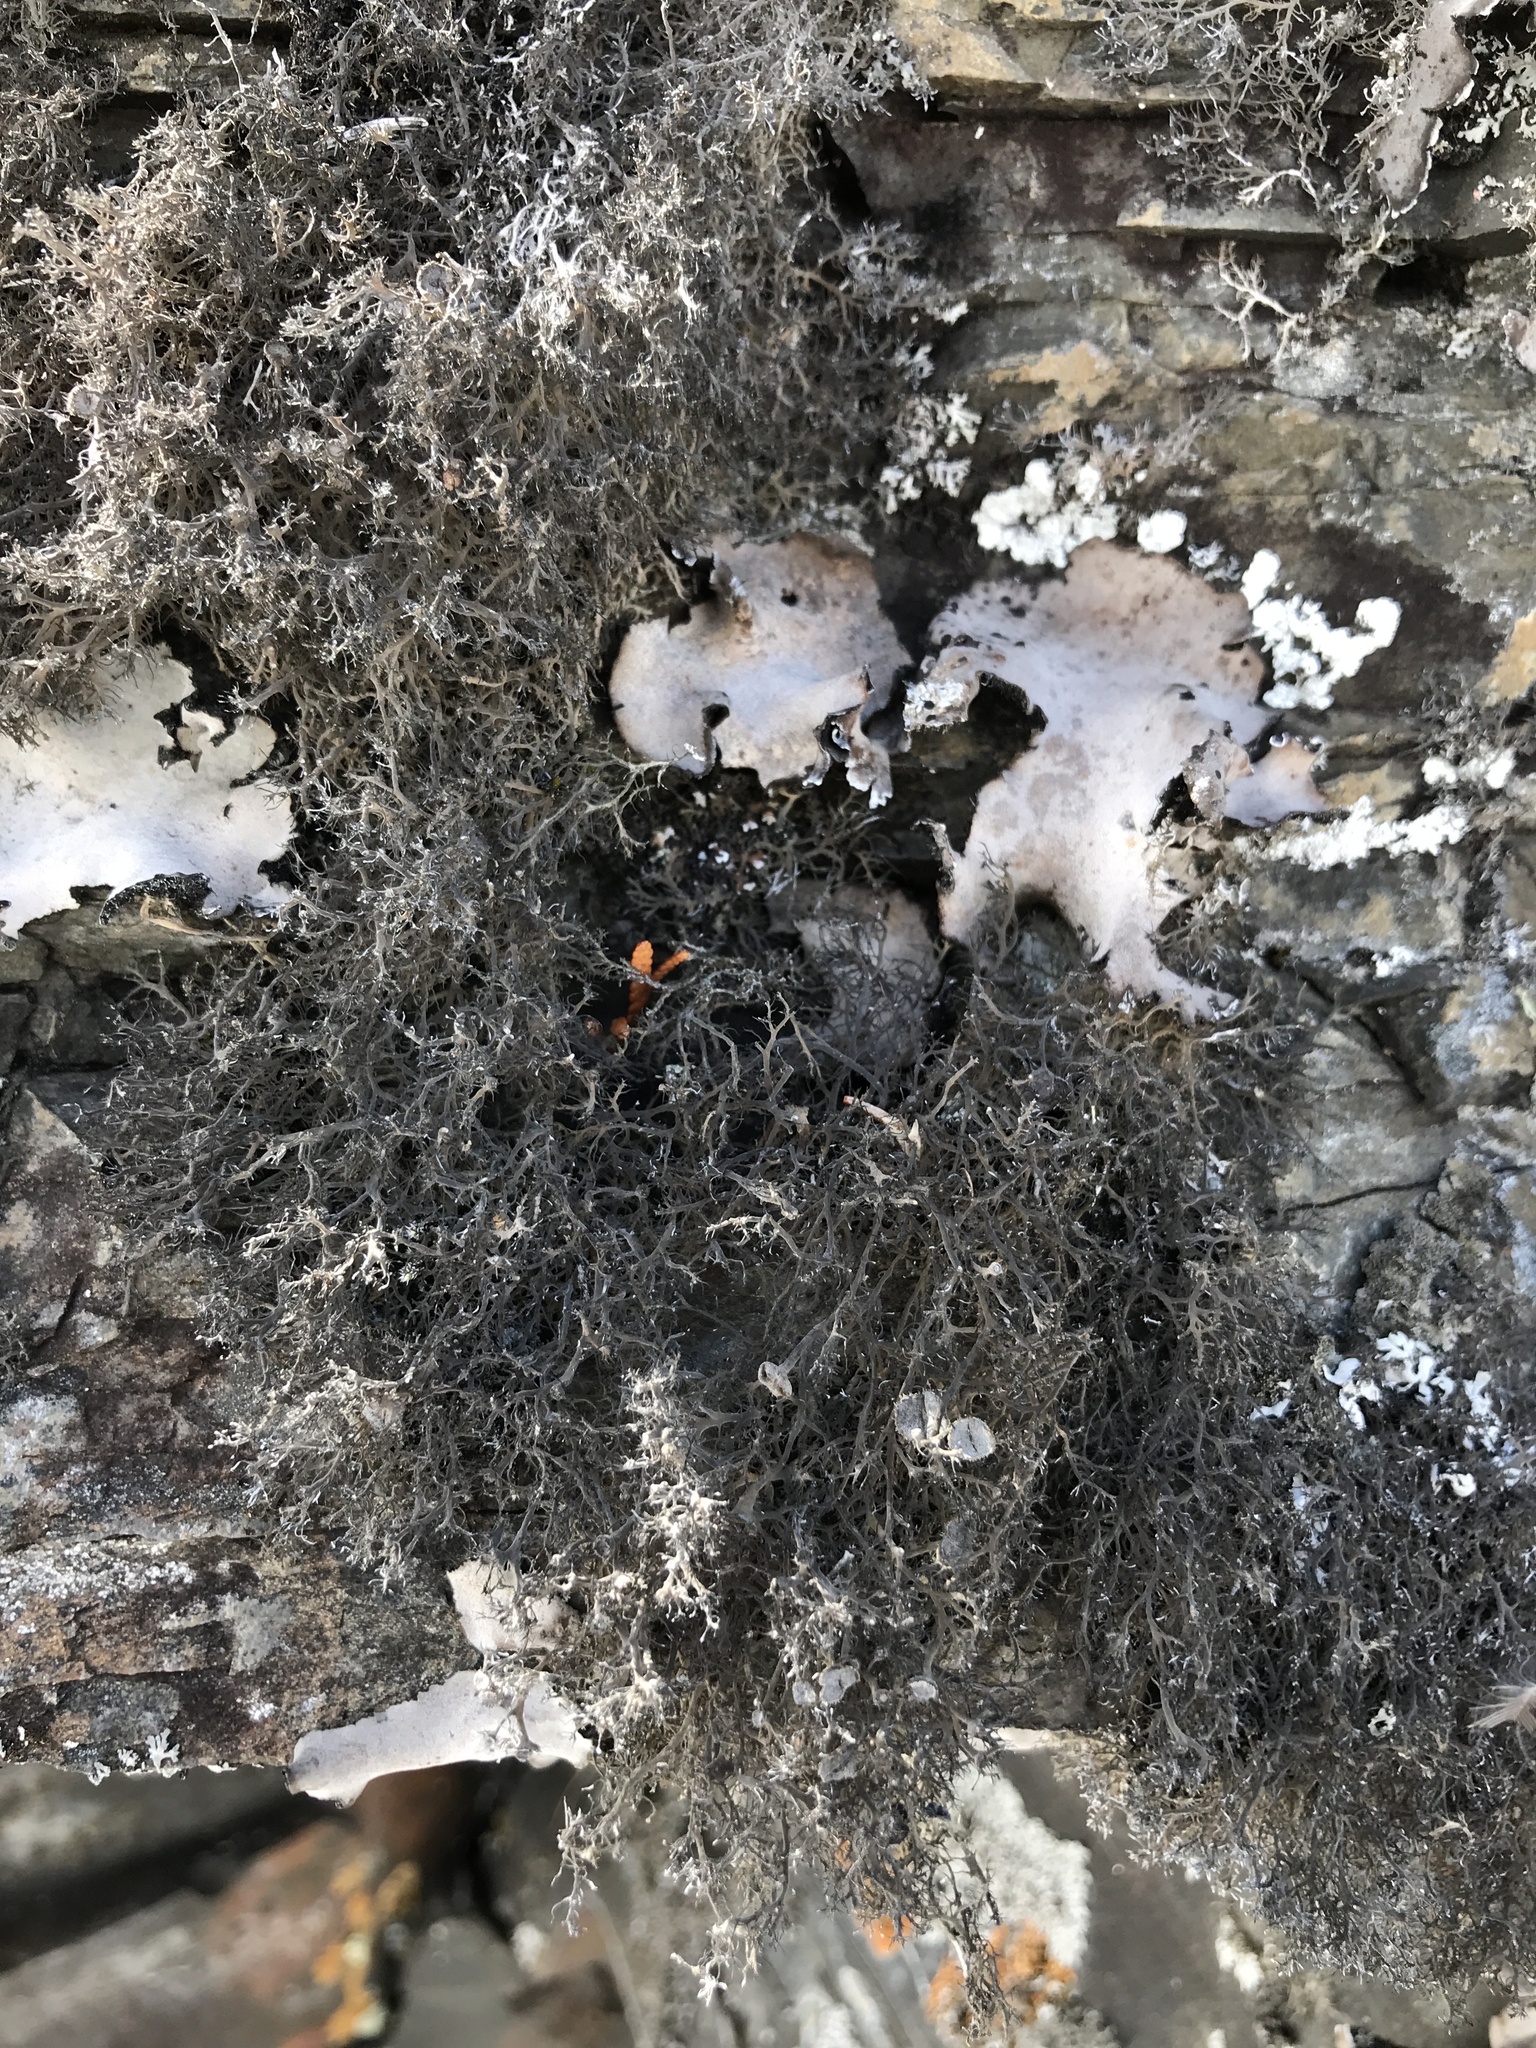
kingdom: Fungi
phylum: Ascomycota
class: Lecanoromycetes
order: Caliciales
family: Physciaceae
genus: Anaptychia
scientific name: Anaptychia crinalis
